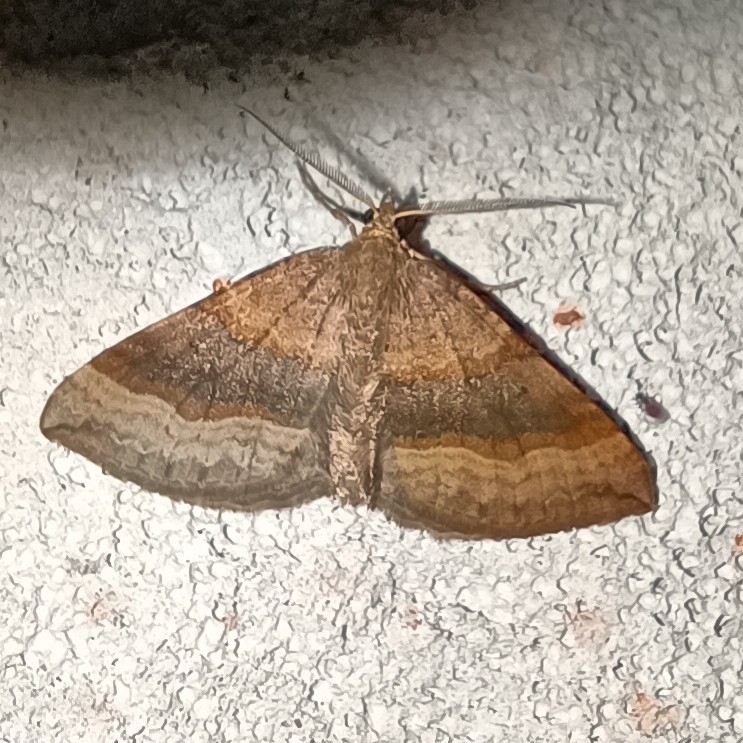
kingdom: Animalia
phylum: Arthropoda
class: Insecta
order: Lepidoptera
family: Geometridae
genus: Scotopteryx
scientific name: Scotopteryx chenopodiata
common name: Shaded broad-bar
